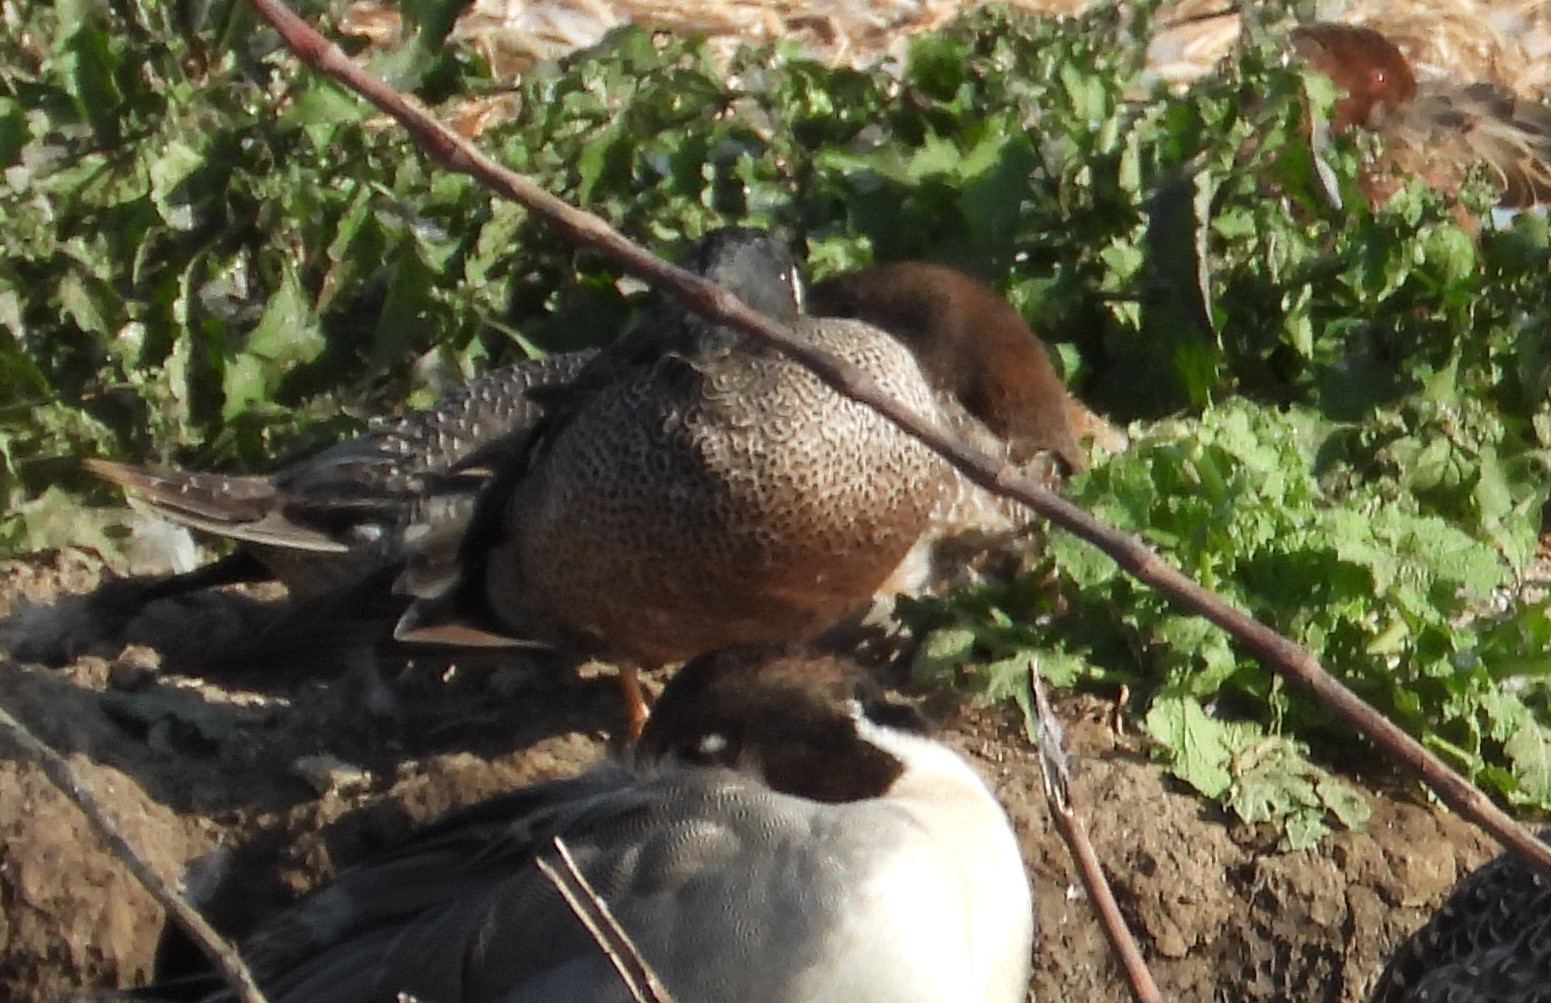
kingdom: Animalia
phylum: Chordata
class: Aves
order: Anseriformes
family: Anatidae
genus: Spatula
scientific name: Spatula discors
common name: Blue-winged teal
